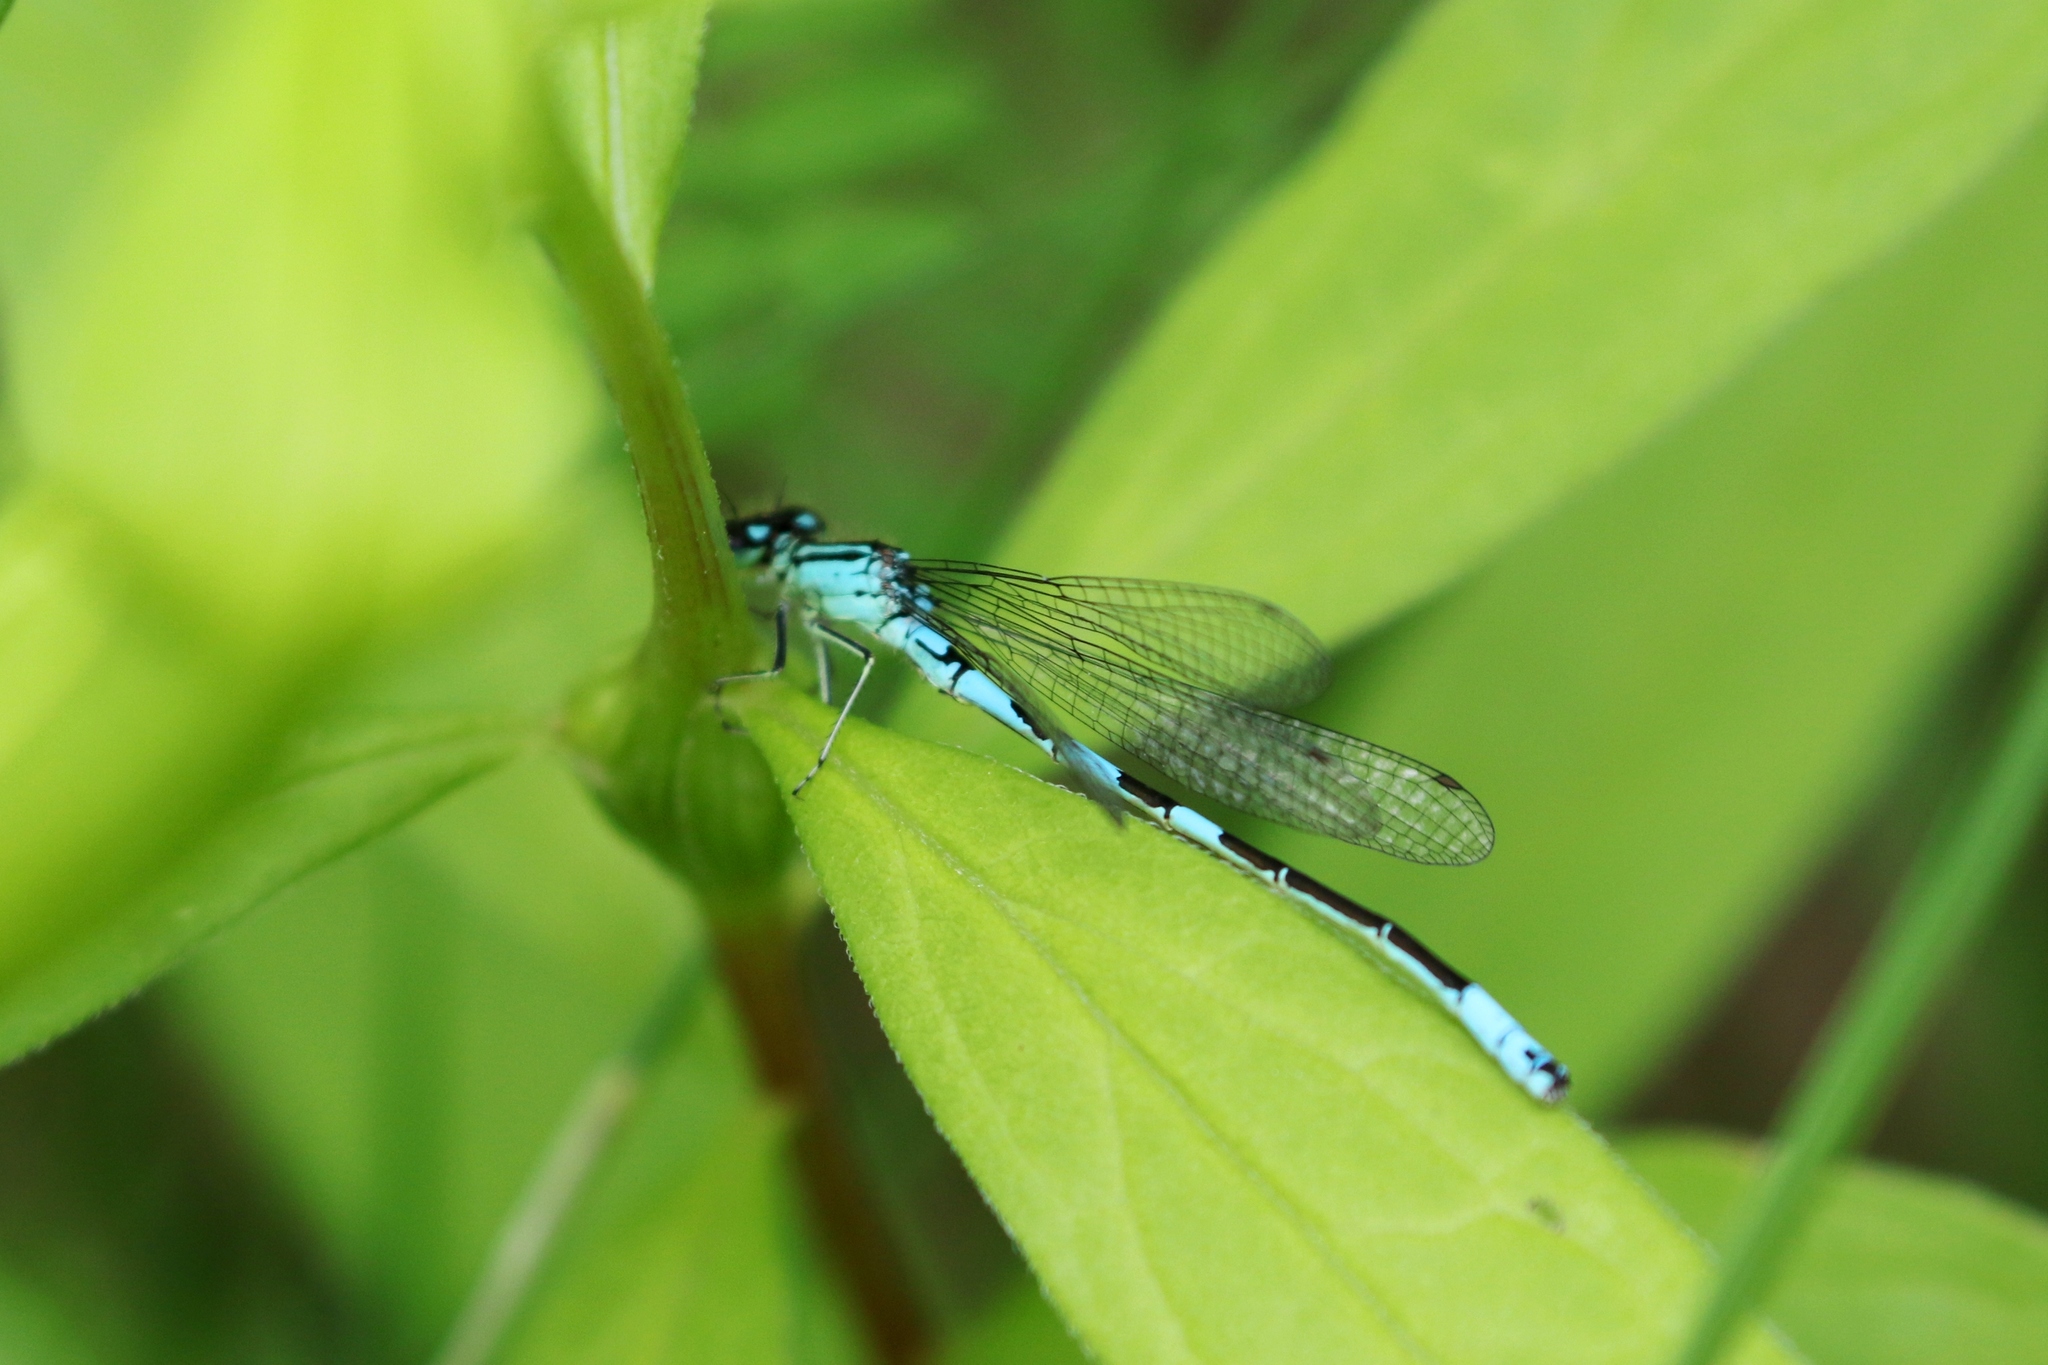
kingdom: Animalia
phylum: Arthropoda
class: Insecta
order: Odonata
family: Coenagrionidae
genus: Coenagrion
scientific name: Coenagrion resolutum
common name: Taiga bluet
